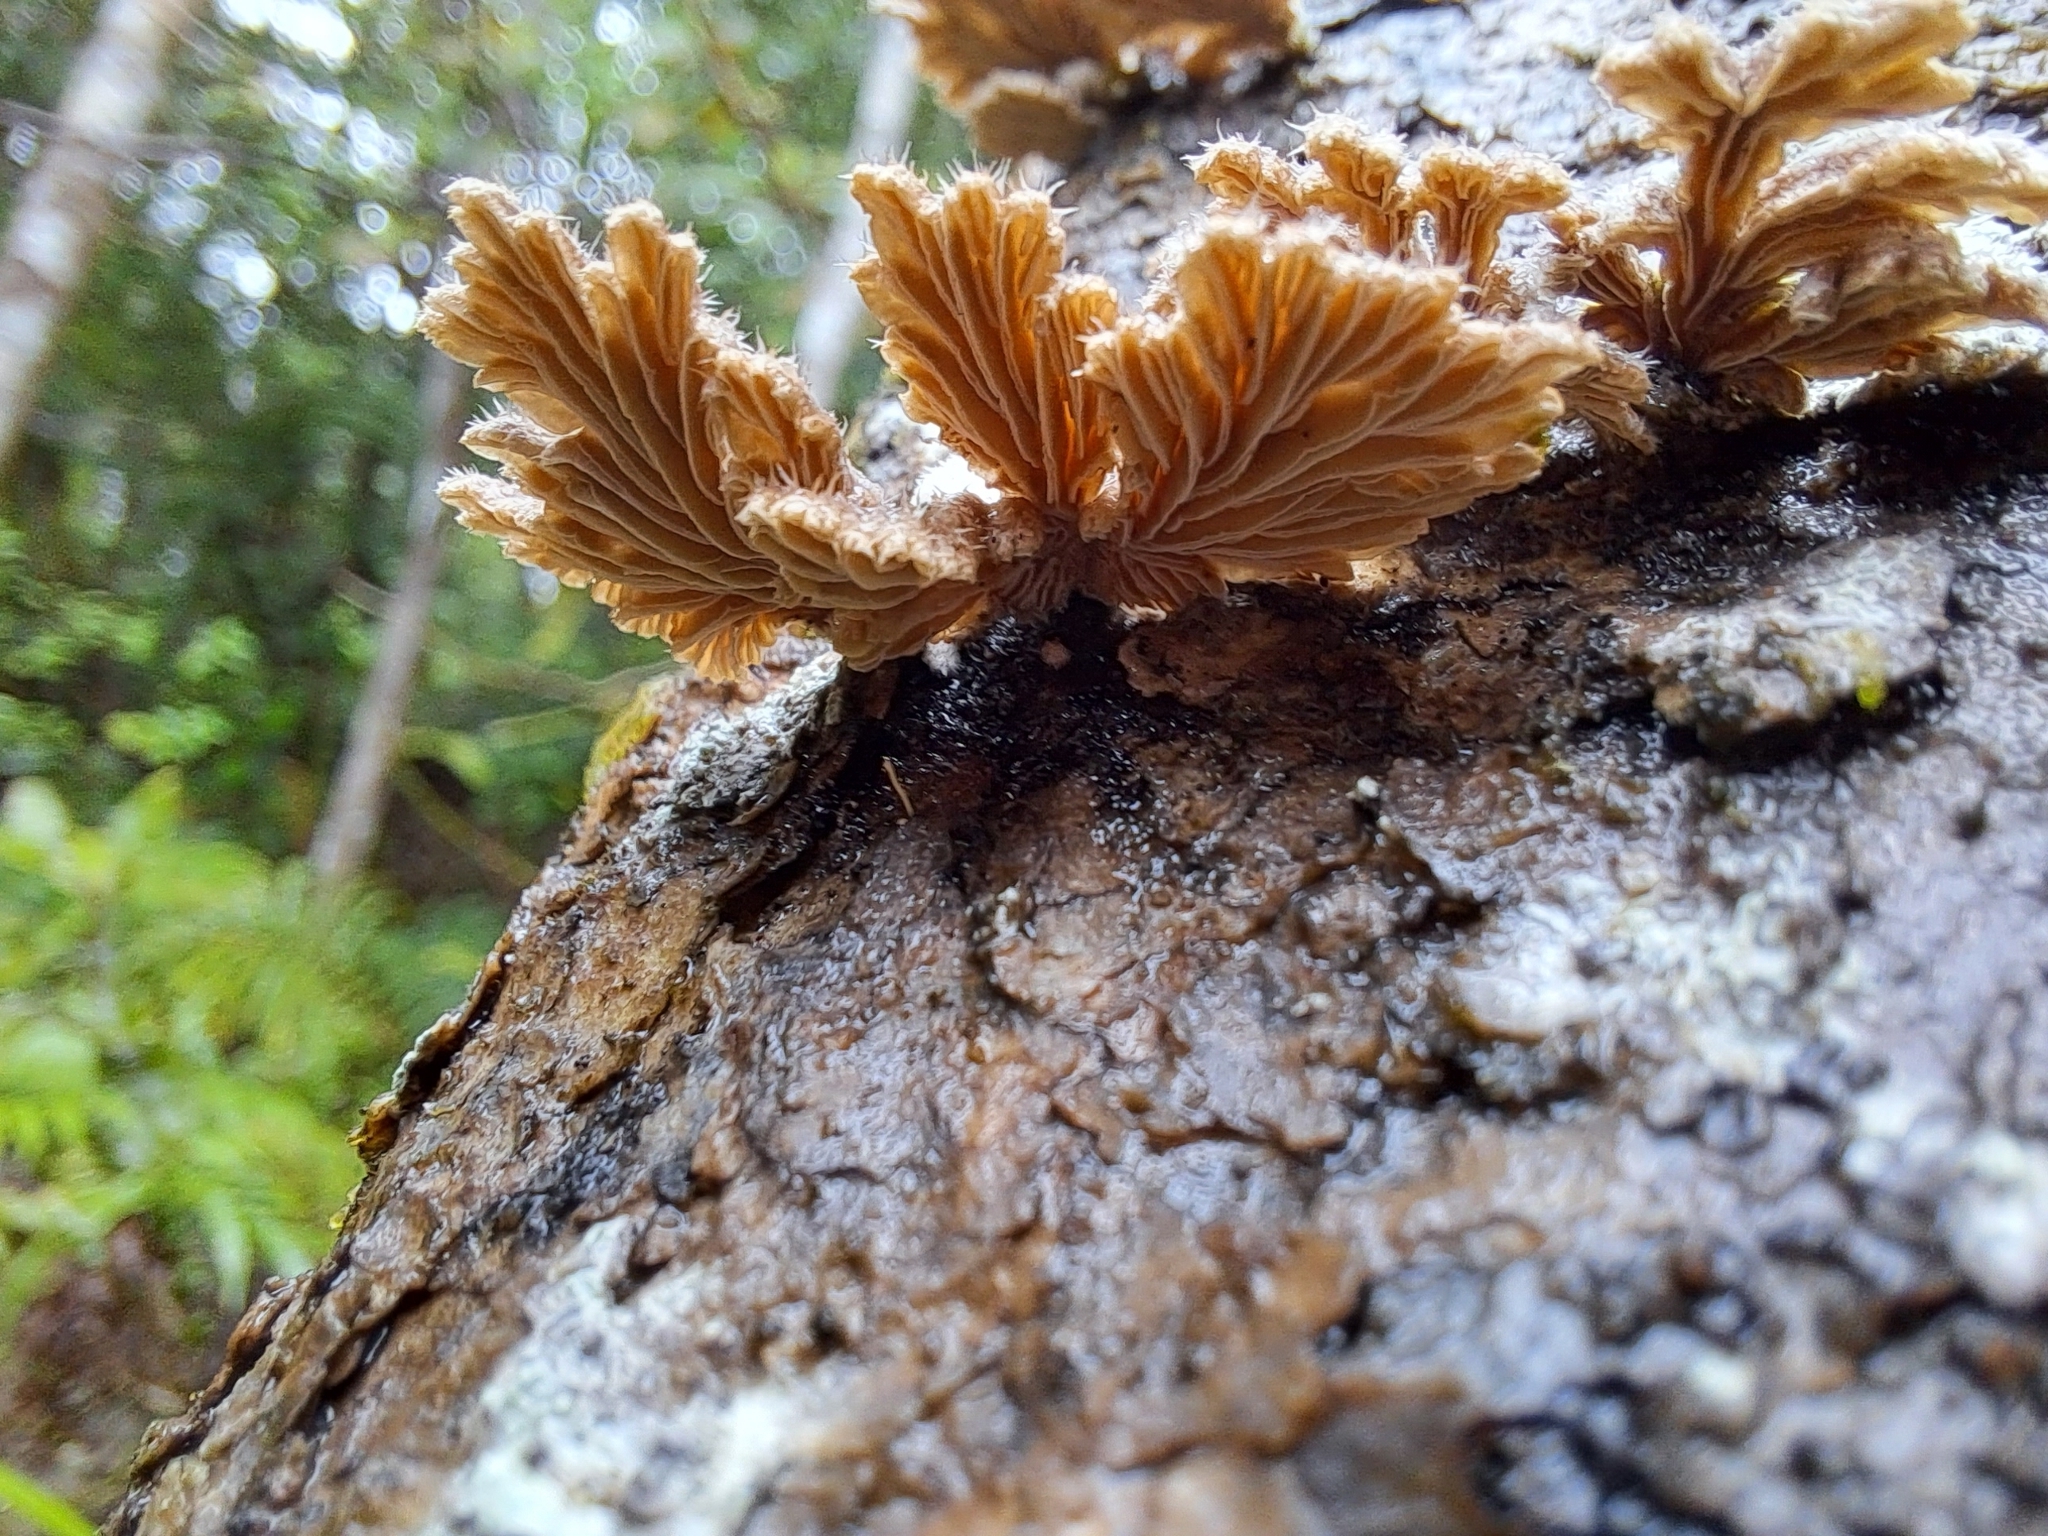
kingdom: Fungi
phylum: Basidiomycota
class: Agaricomycetes
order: Agaricales
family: Schizophyllaceae
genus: Schizophyllum
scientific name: Schizophyllum commune
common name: Common porecrust
